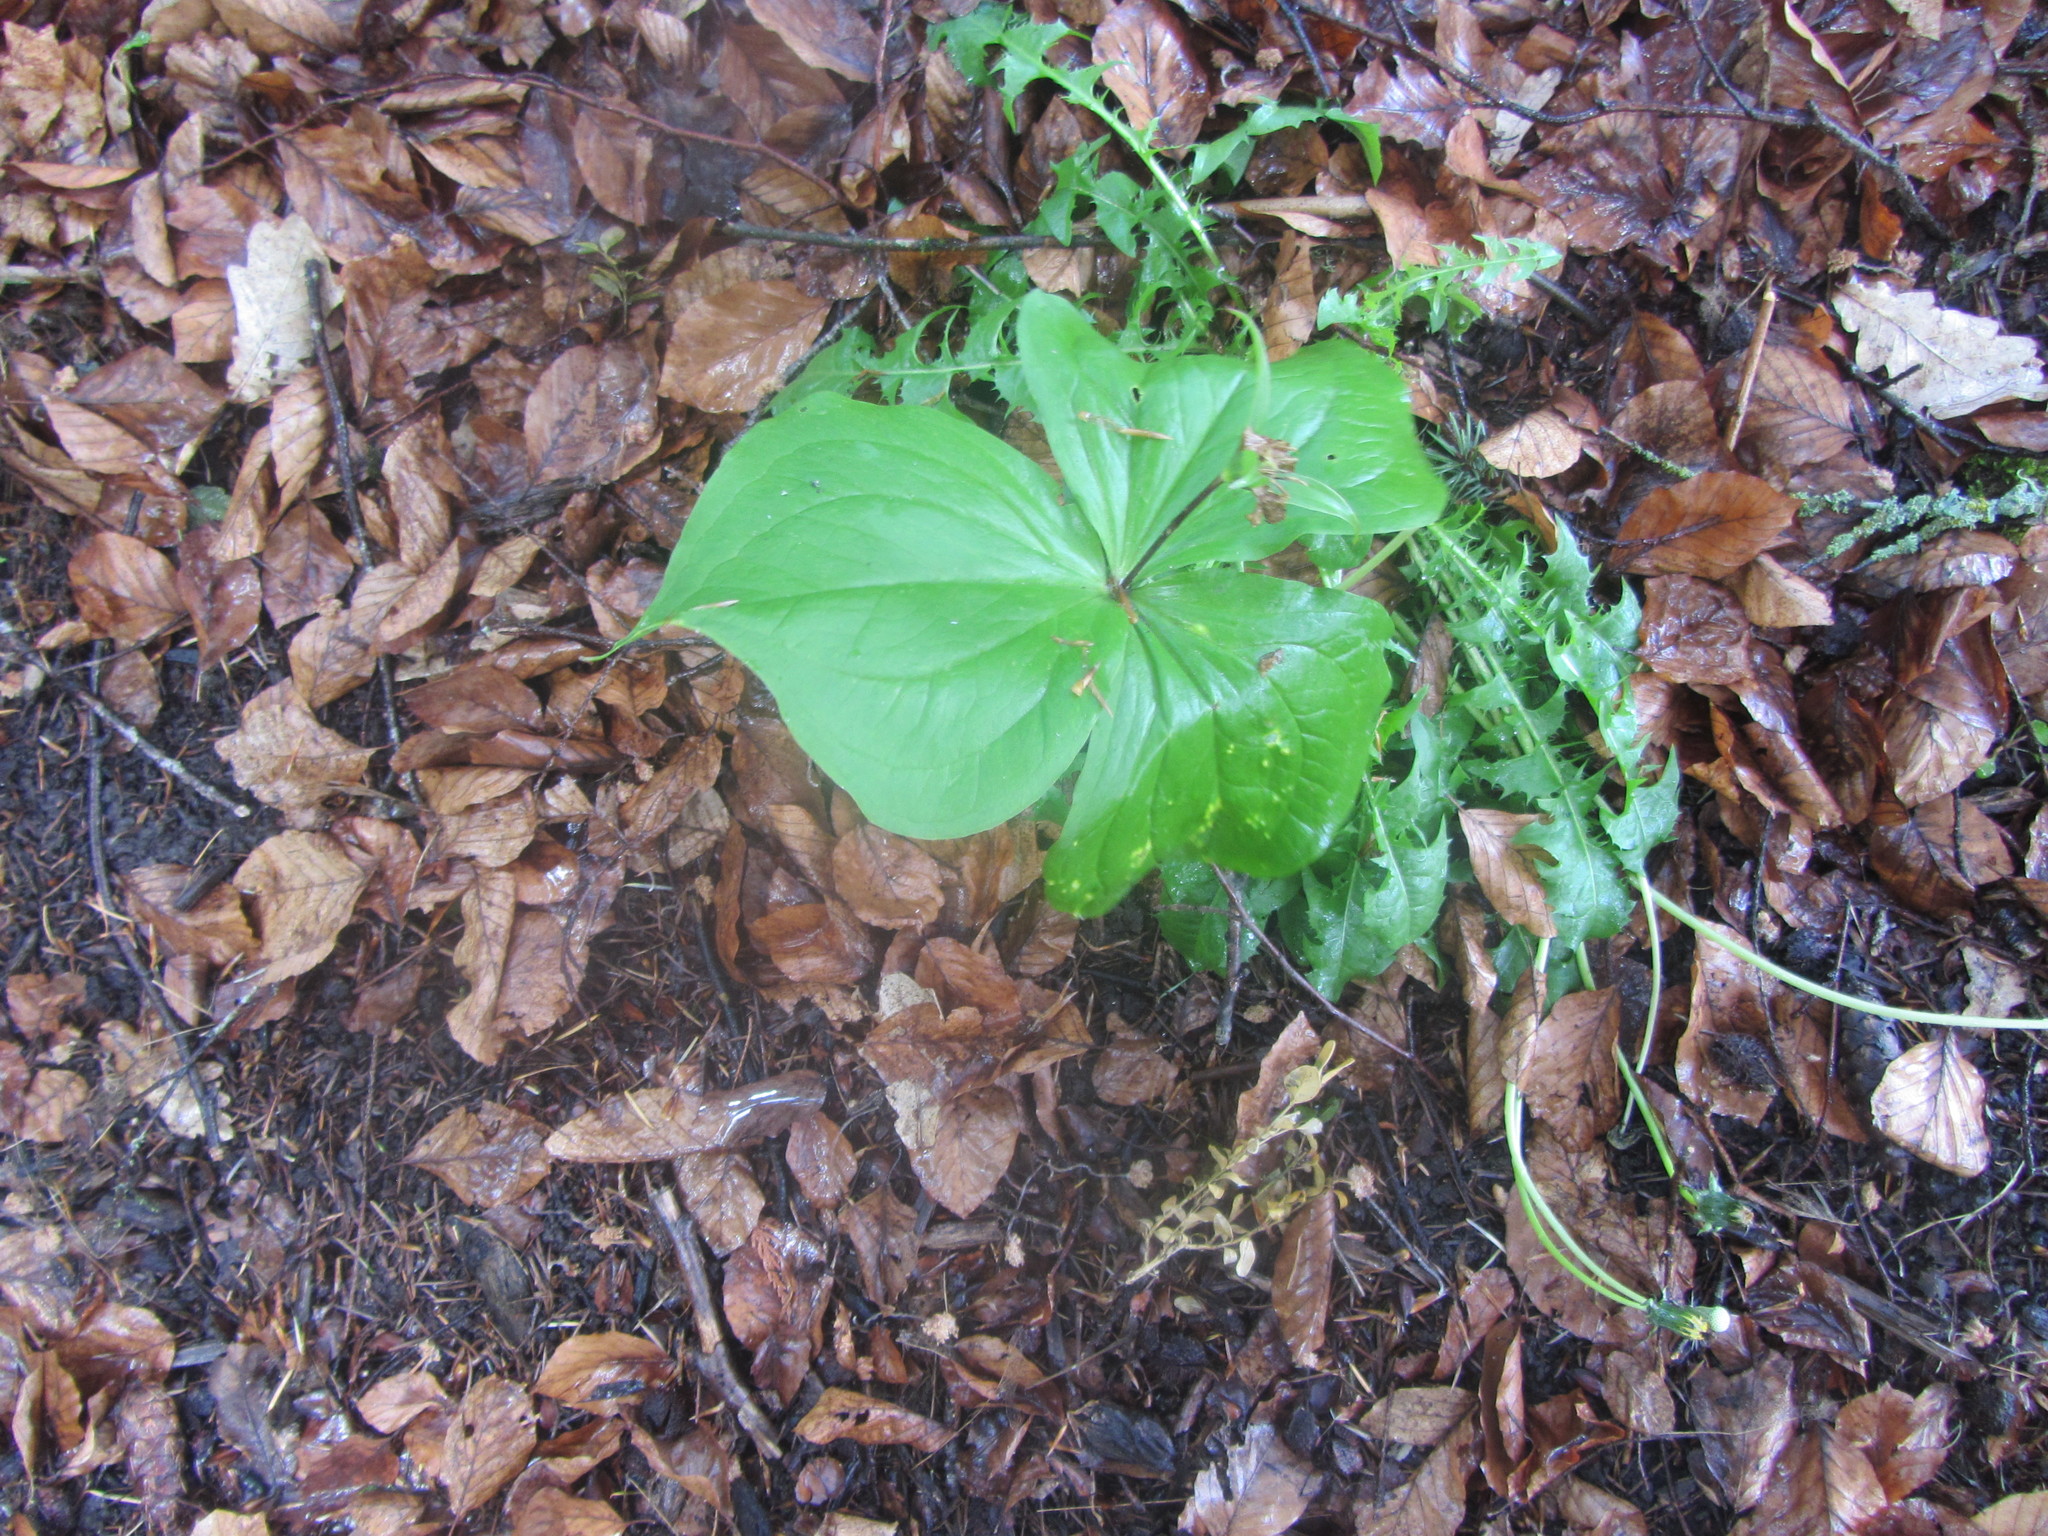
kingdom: Plantae
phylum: Tracheophyta
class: Liliopsida
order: Liliales
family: Melanthiaceae
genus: Trillium
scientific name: Trillium ovatum
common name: Pacific trillium
